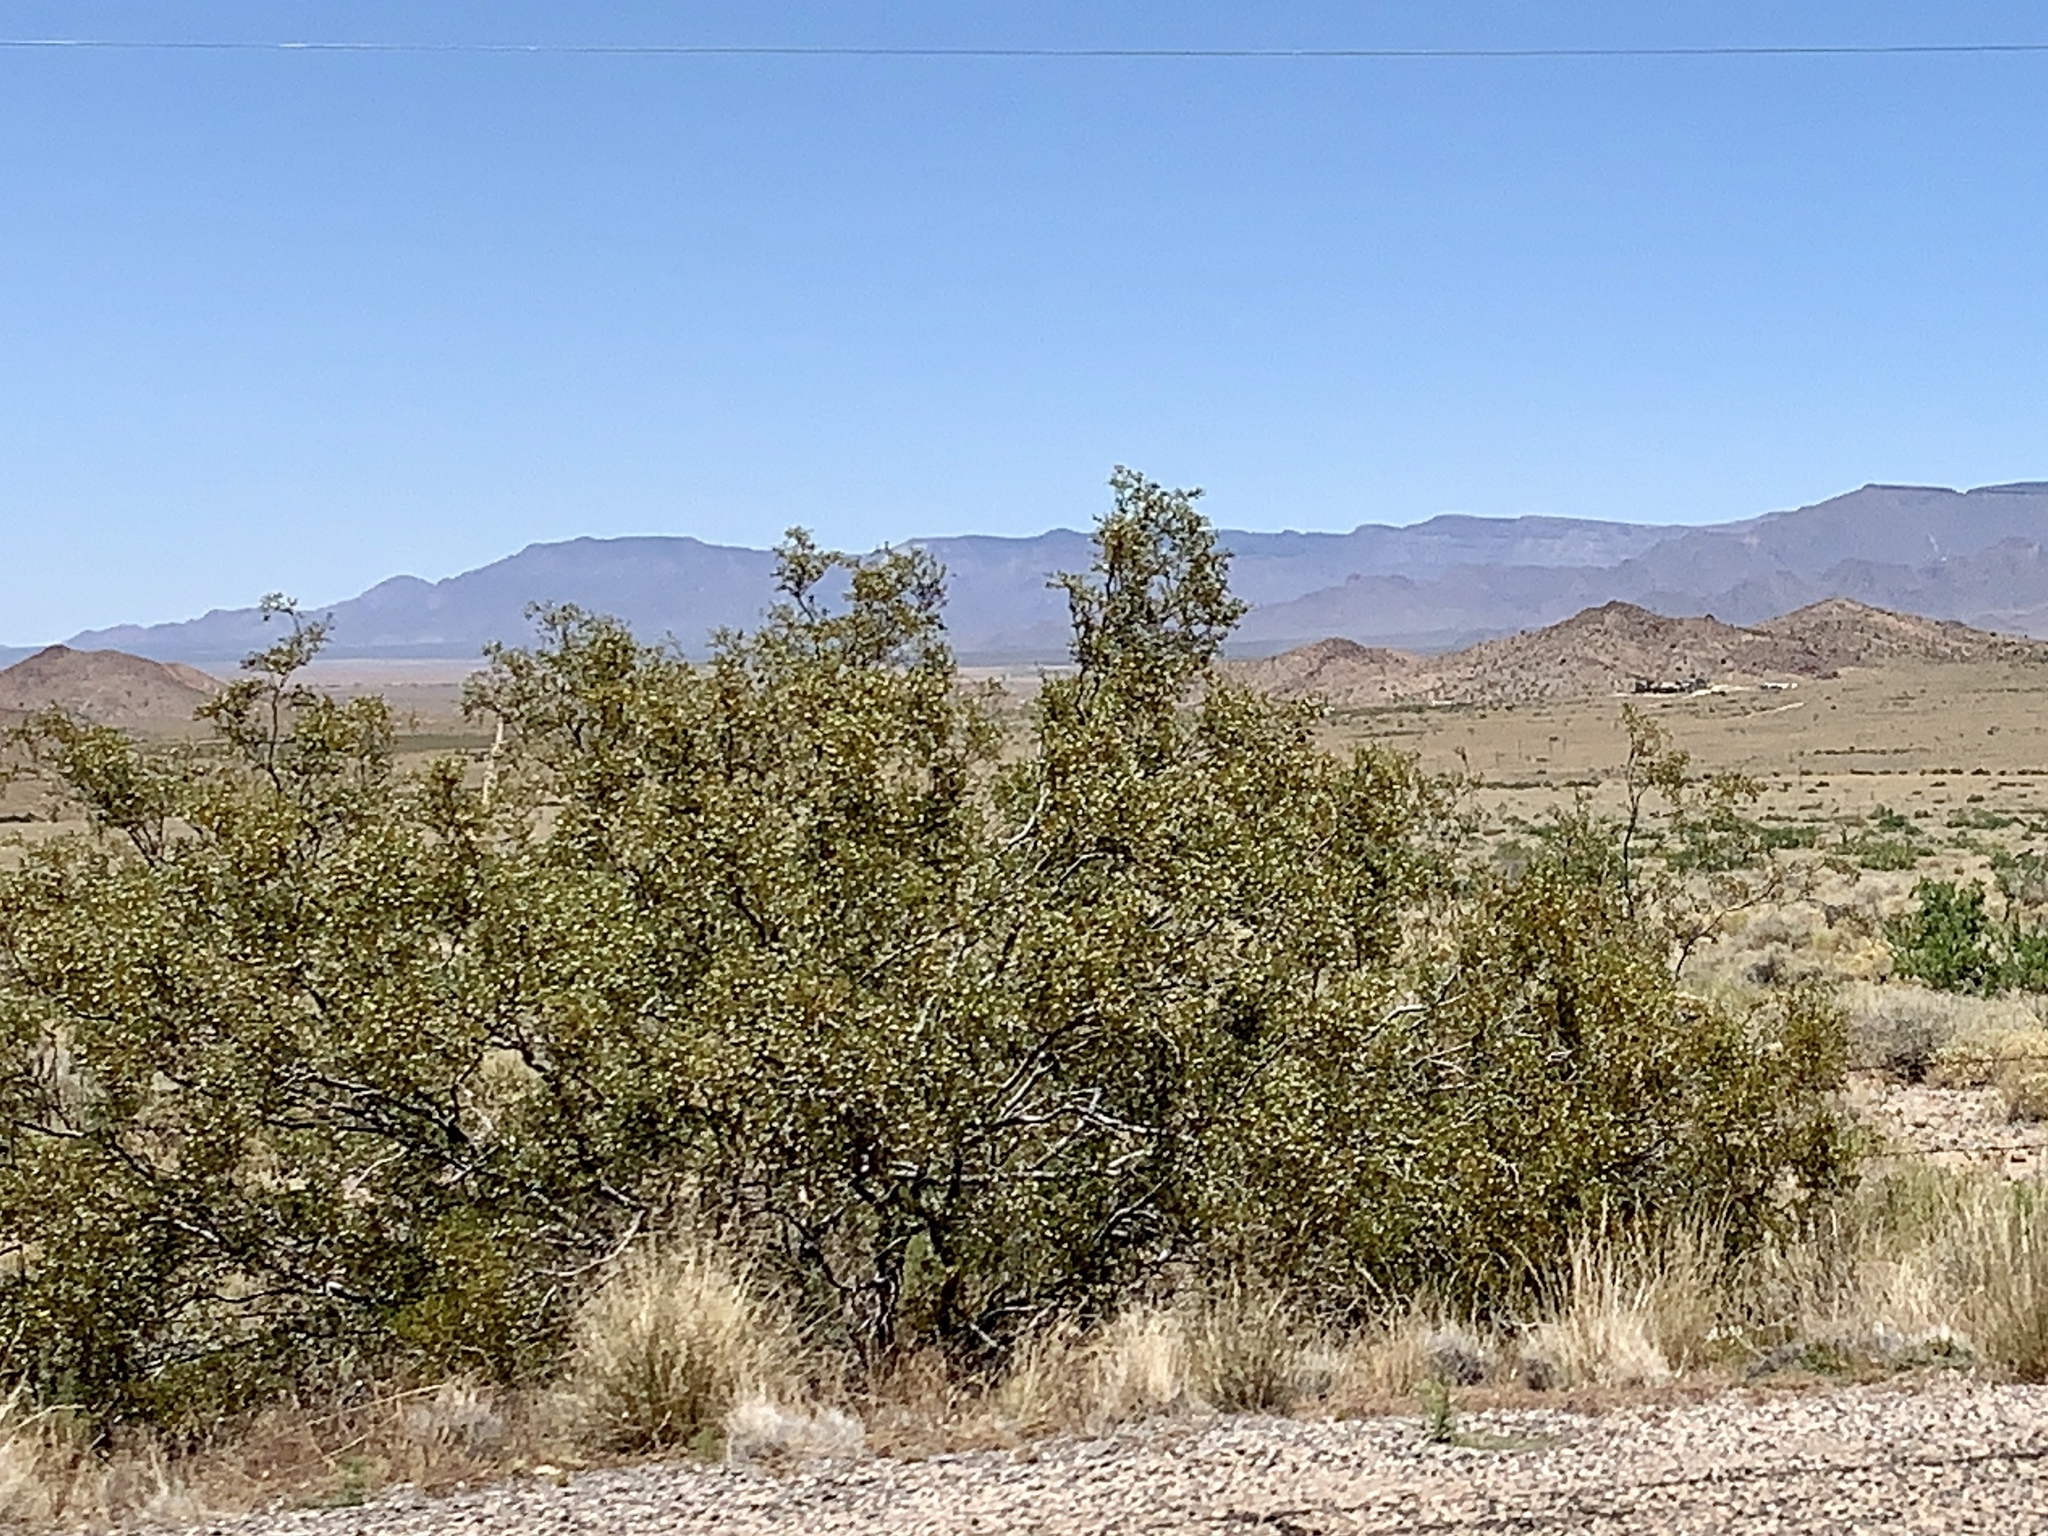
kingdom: Plantae
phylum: Tracheophyta
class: Magnoliopsida
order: Zygophyllales
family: Zygophyllaceae
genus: Larrea
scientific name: Larrea tridentata
